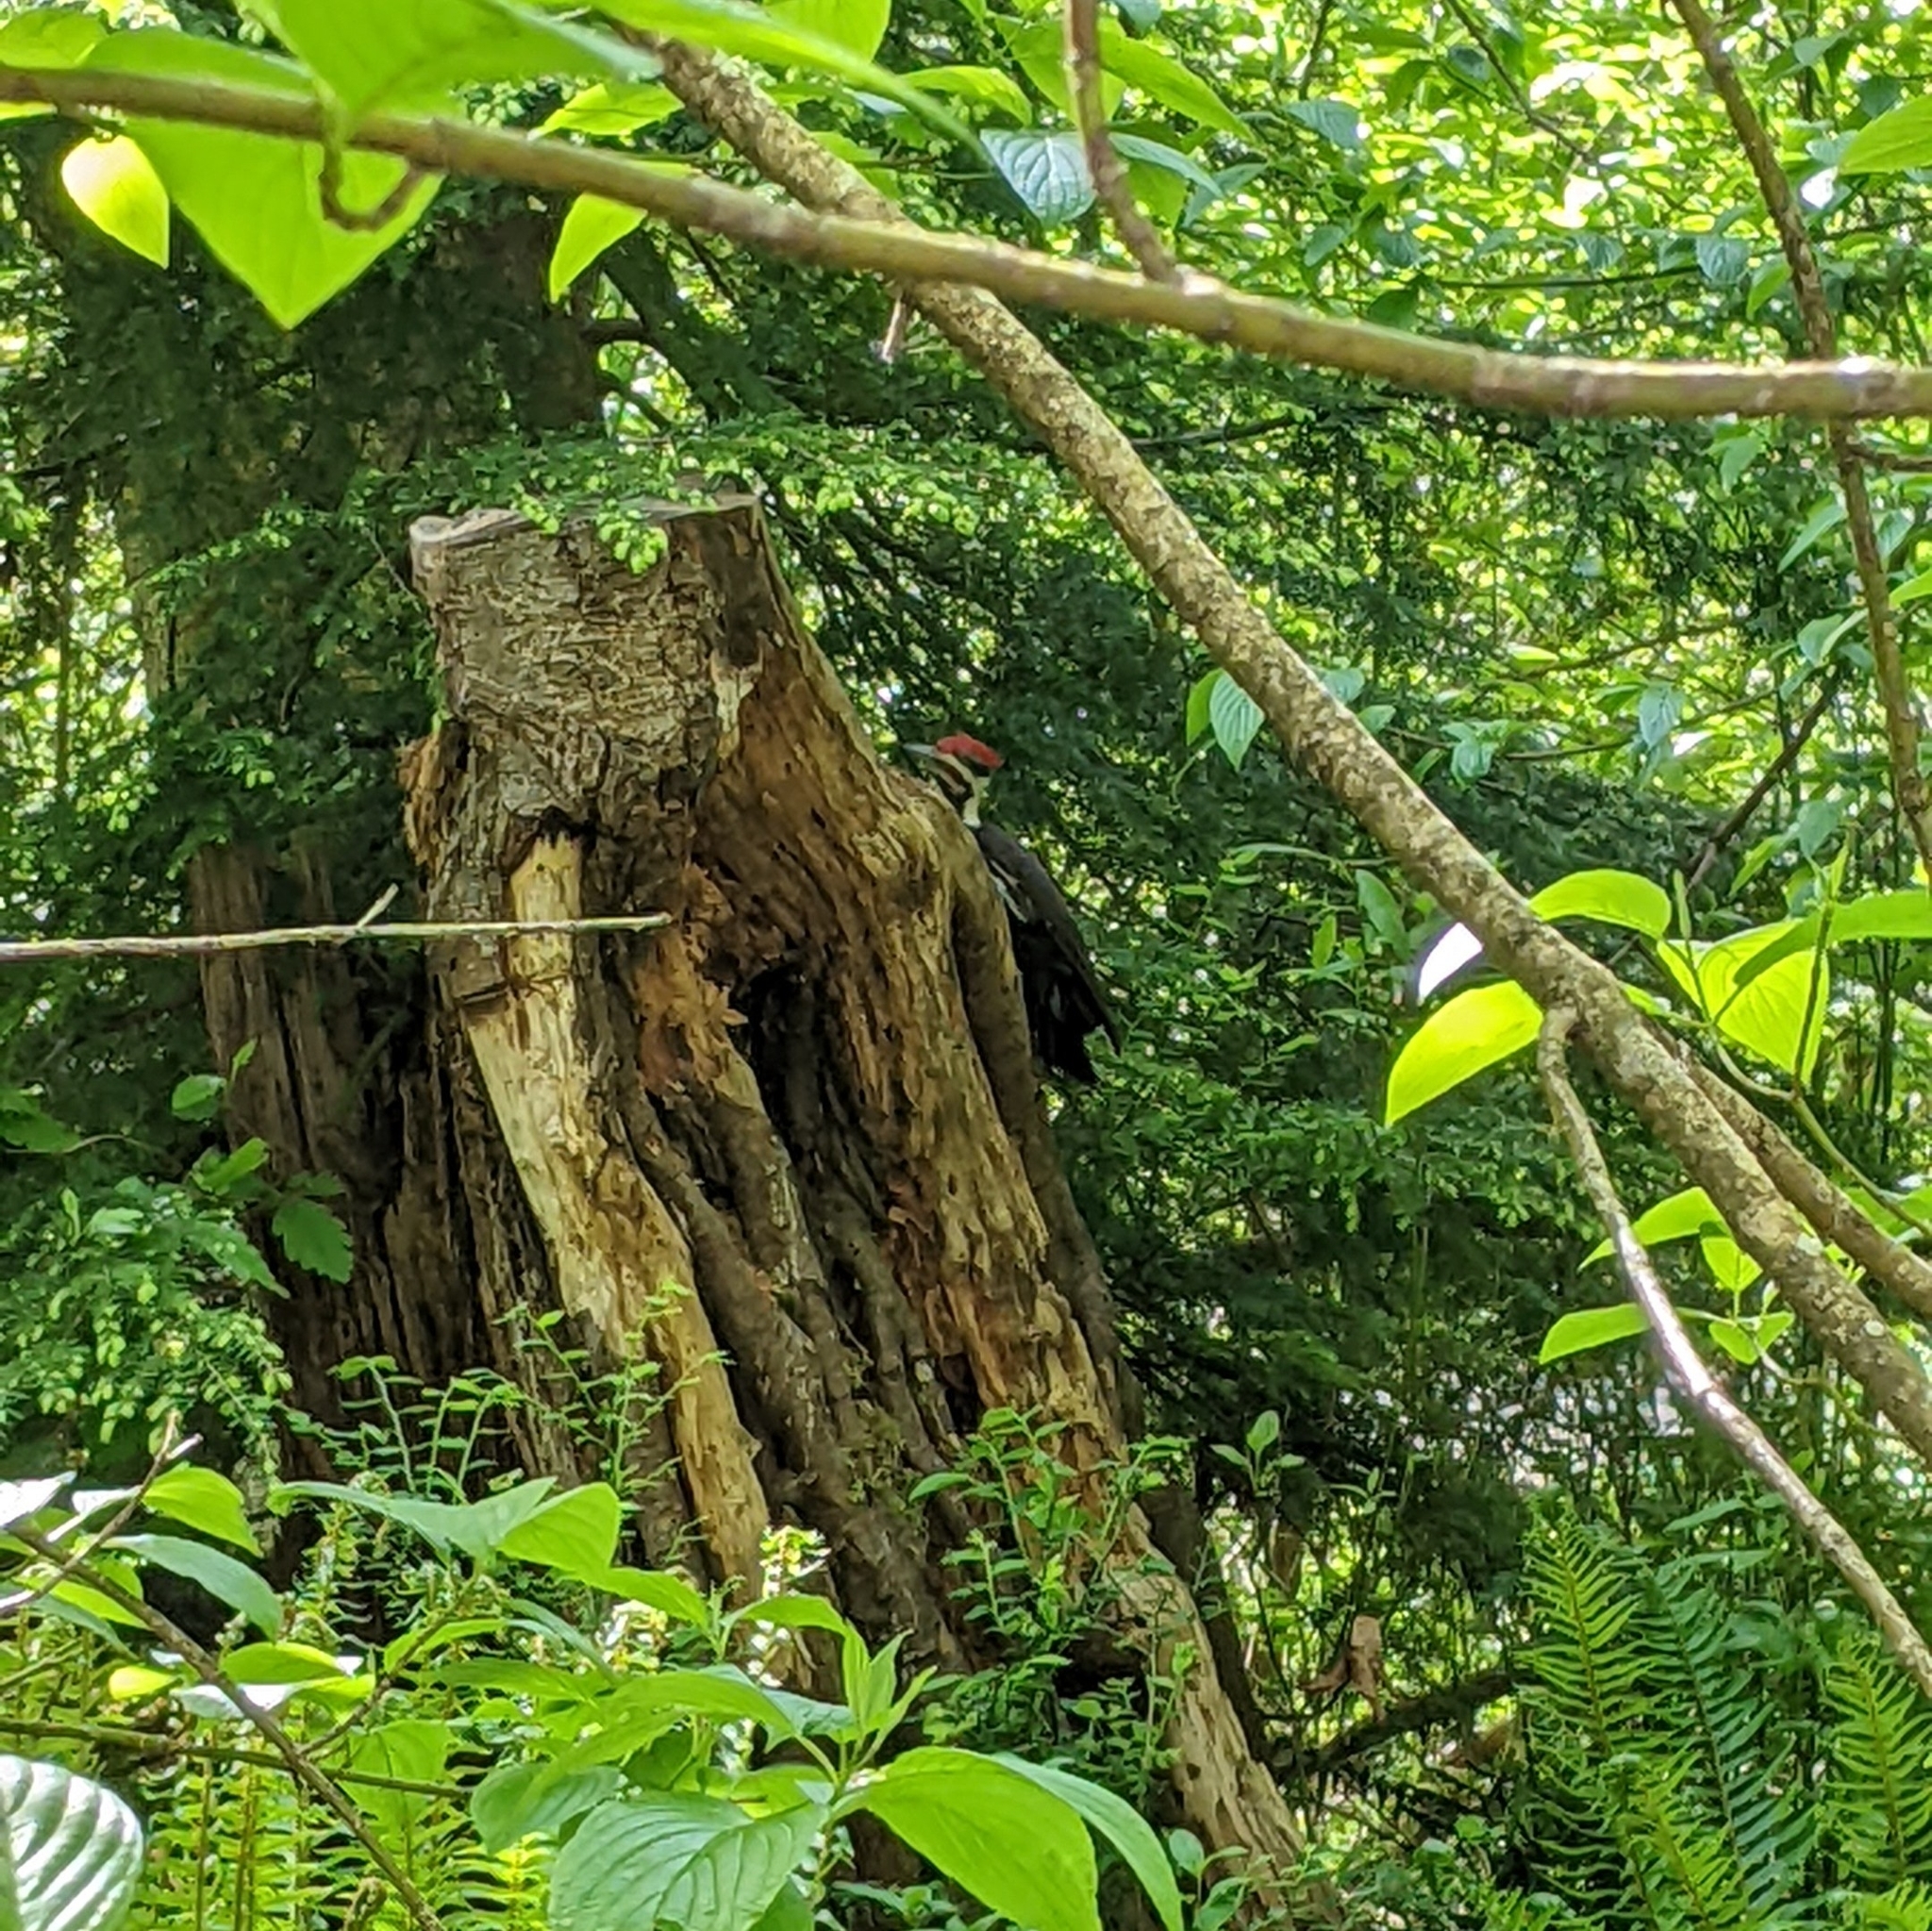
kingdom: Animalia
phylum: Chordata
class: Aves
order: Piciformes
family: Picidae
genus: Dryocopus
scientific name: Dryocopus pileatus
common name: Pileated woodpecker
